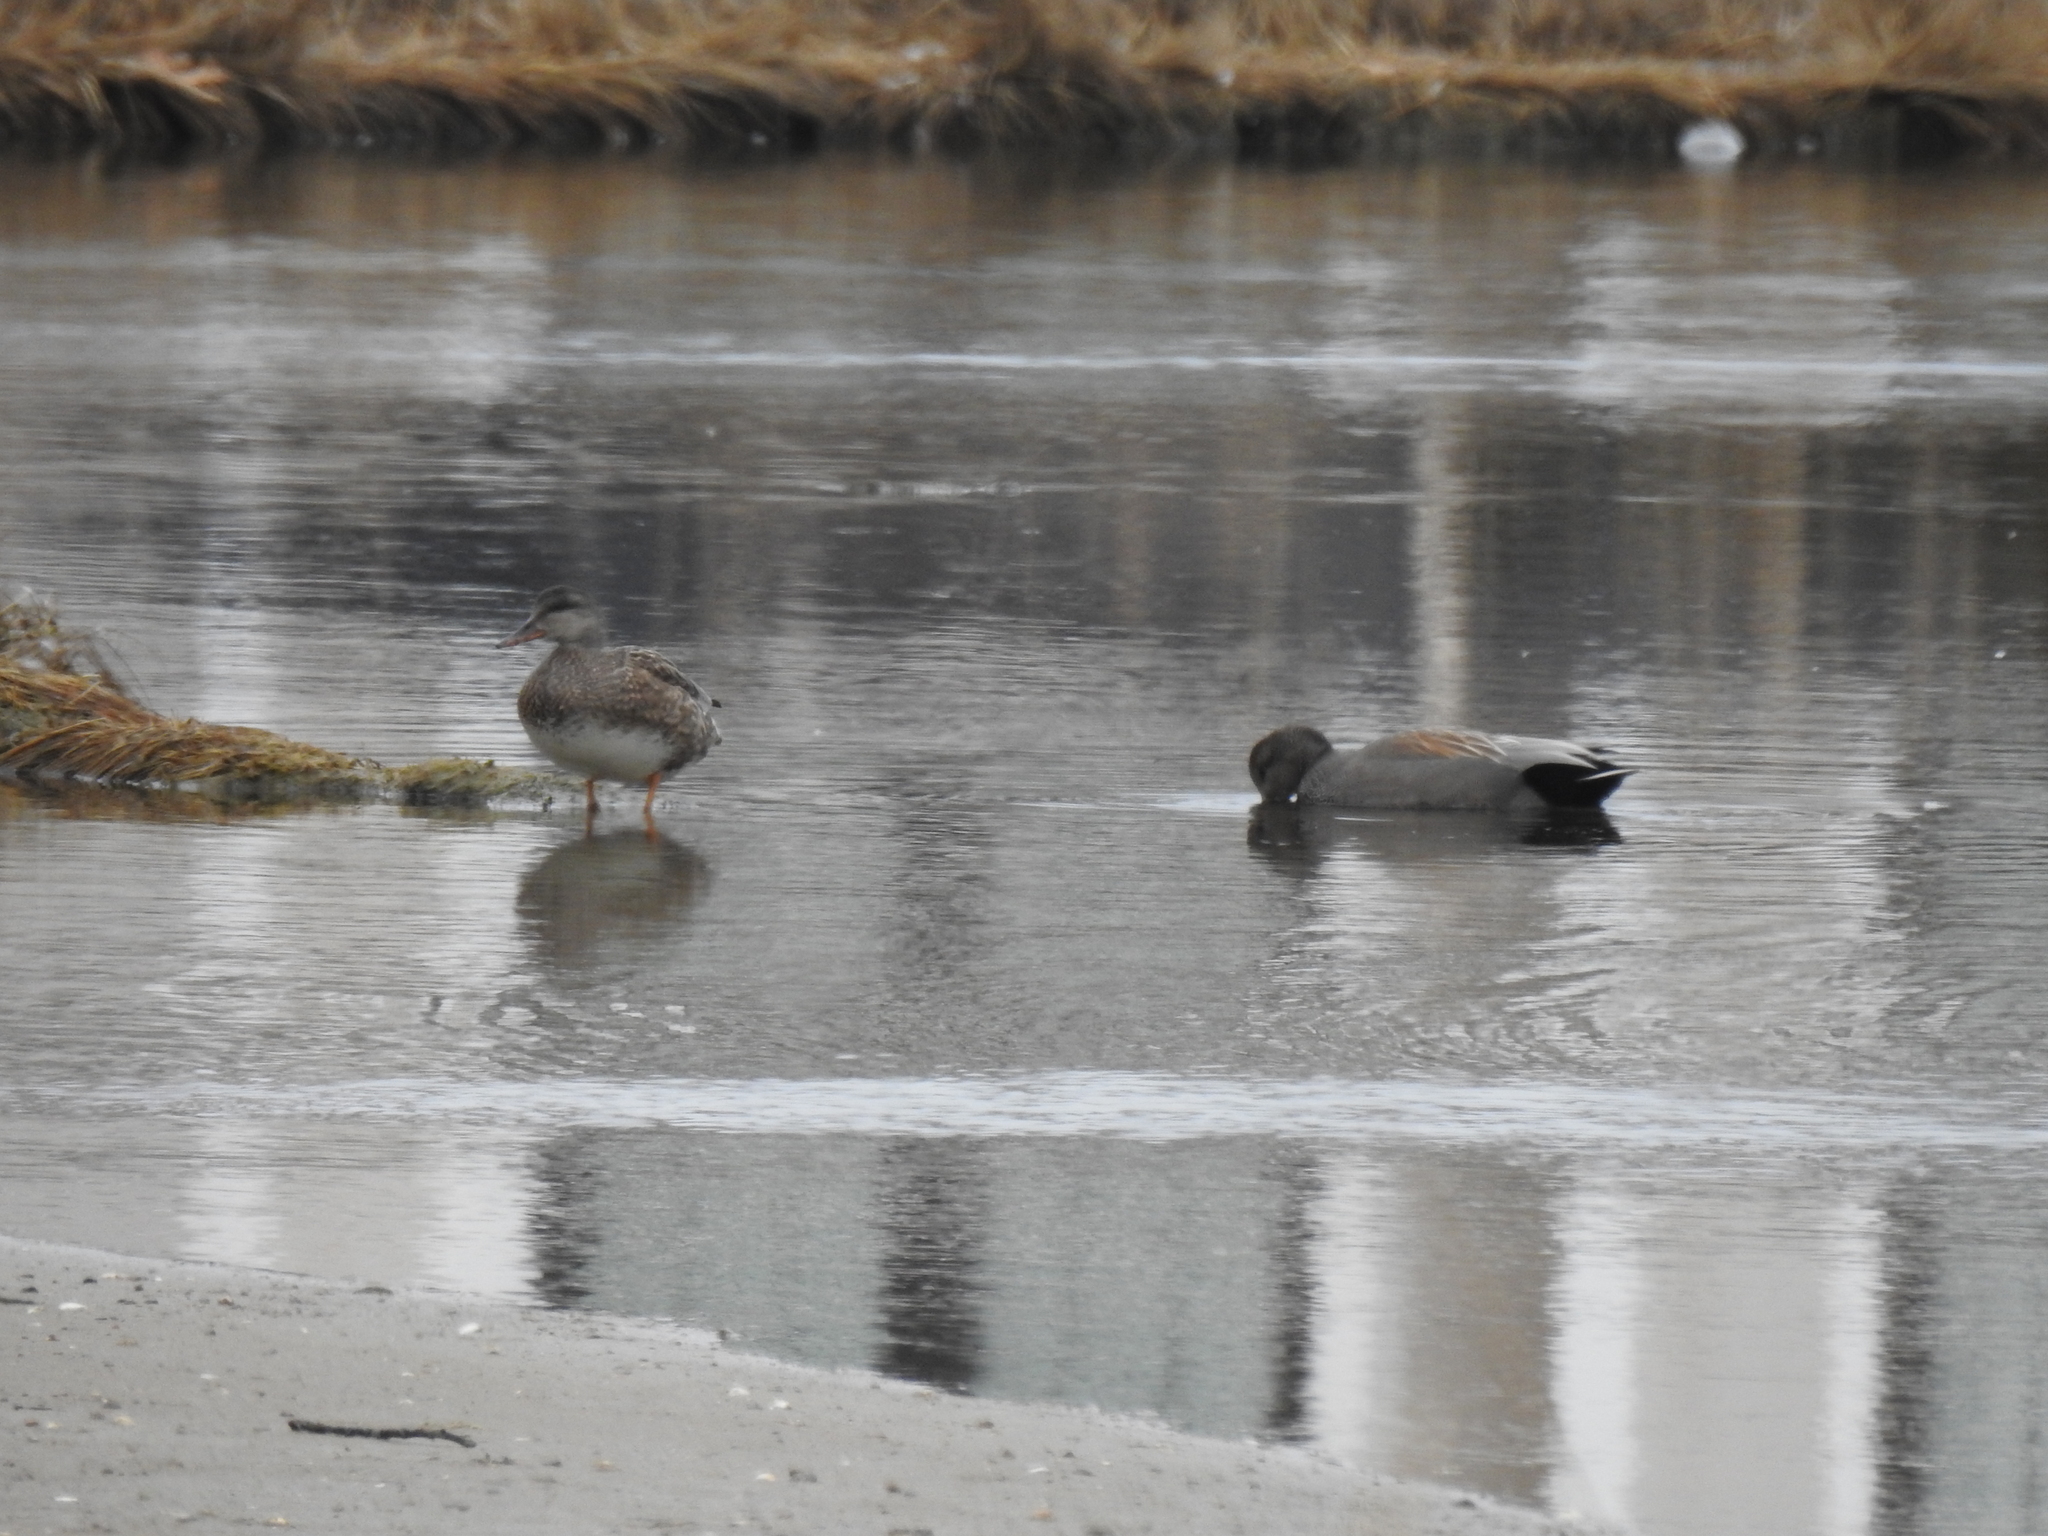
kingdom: Animalia
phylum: Chordata
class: Aves
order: Anseriformes
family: Anatidae
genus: Mareca
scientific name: Mareca strepera
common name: Gadwall
